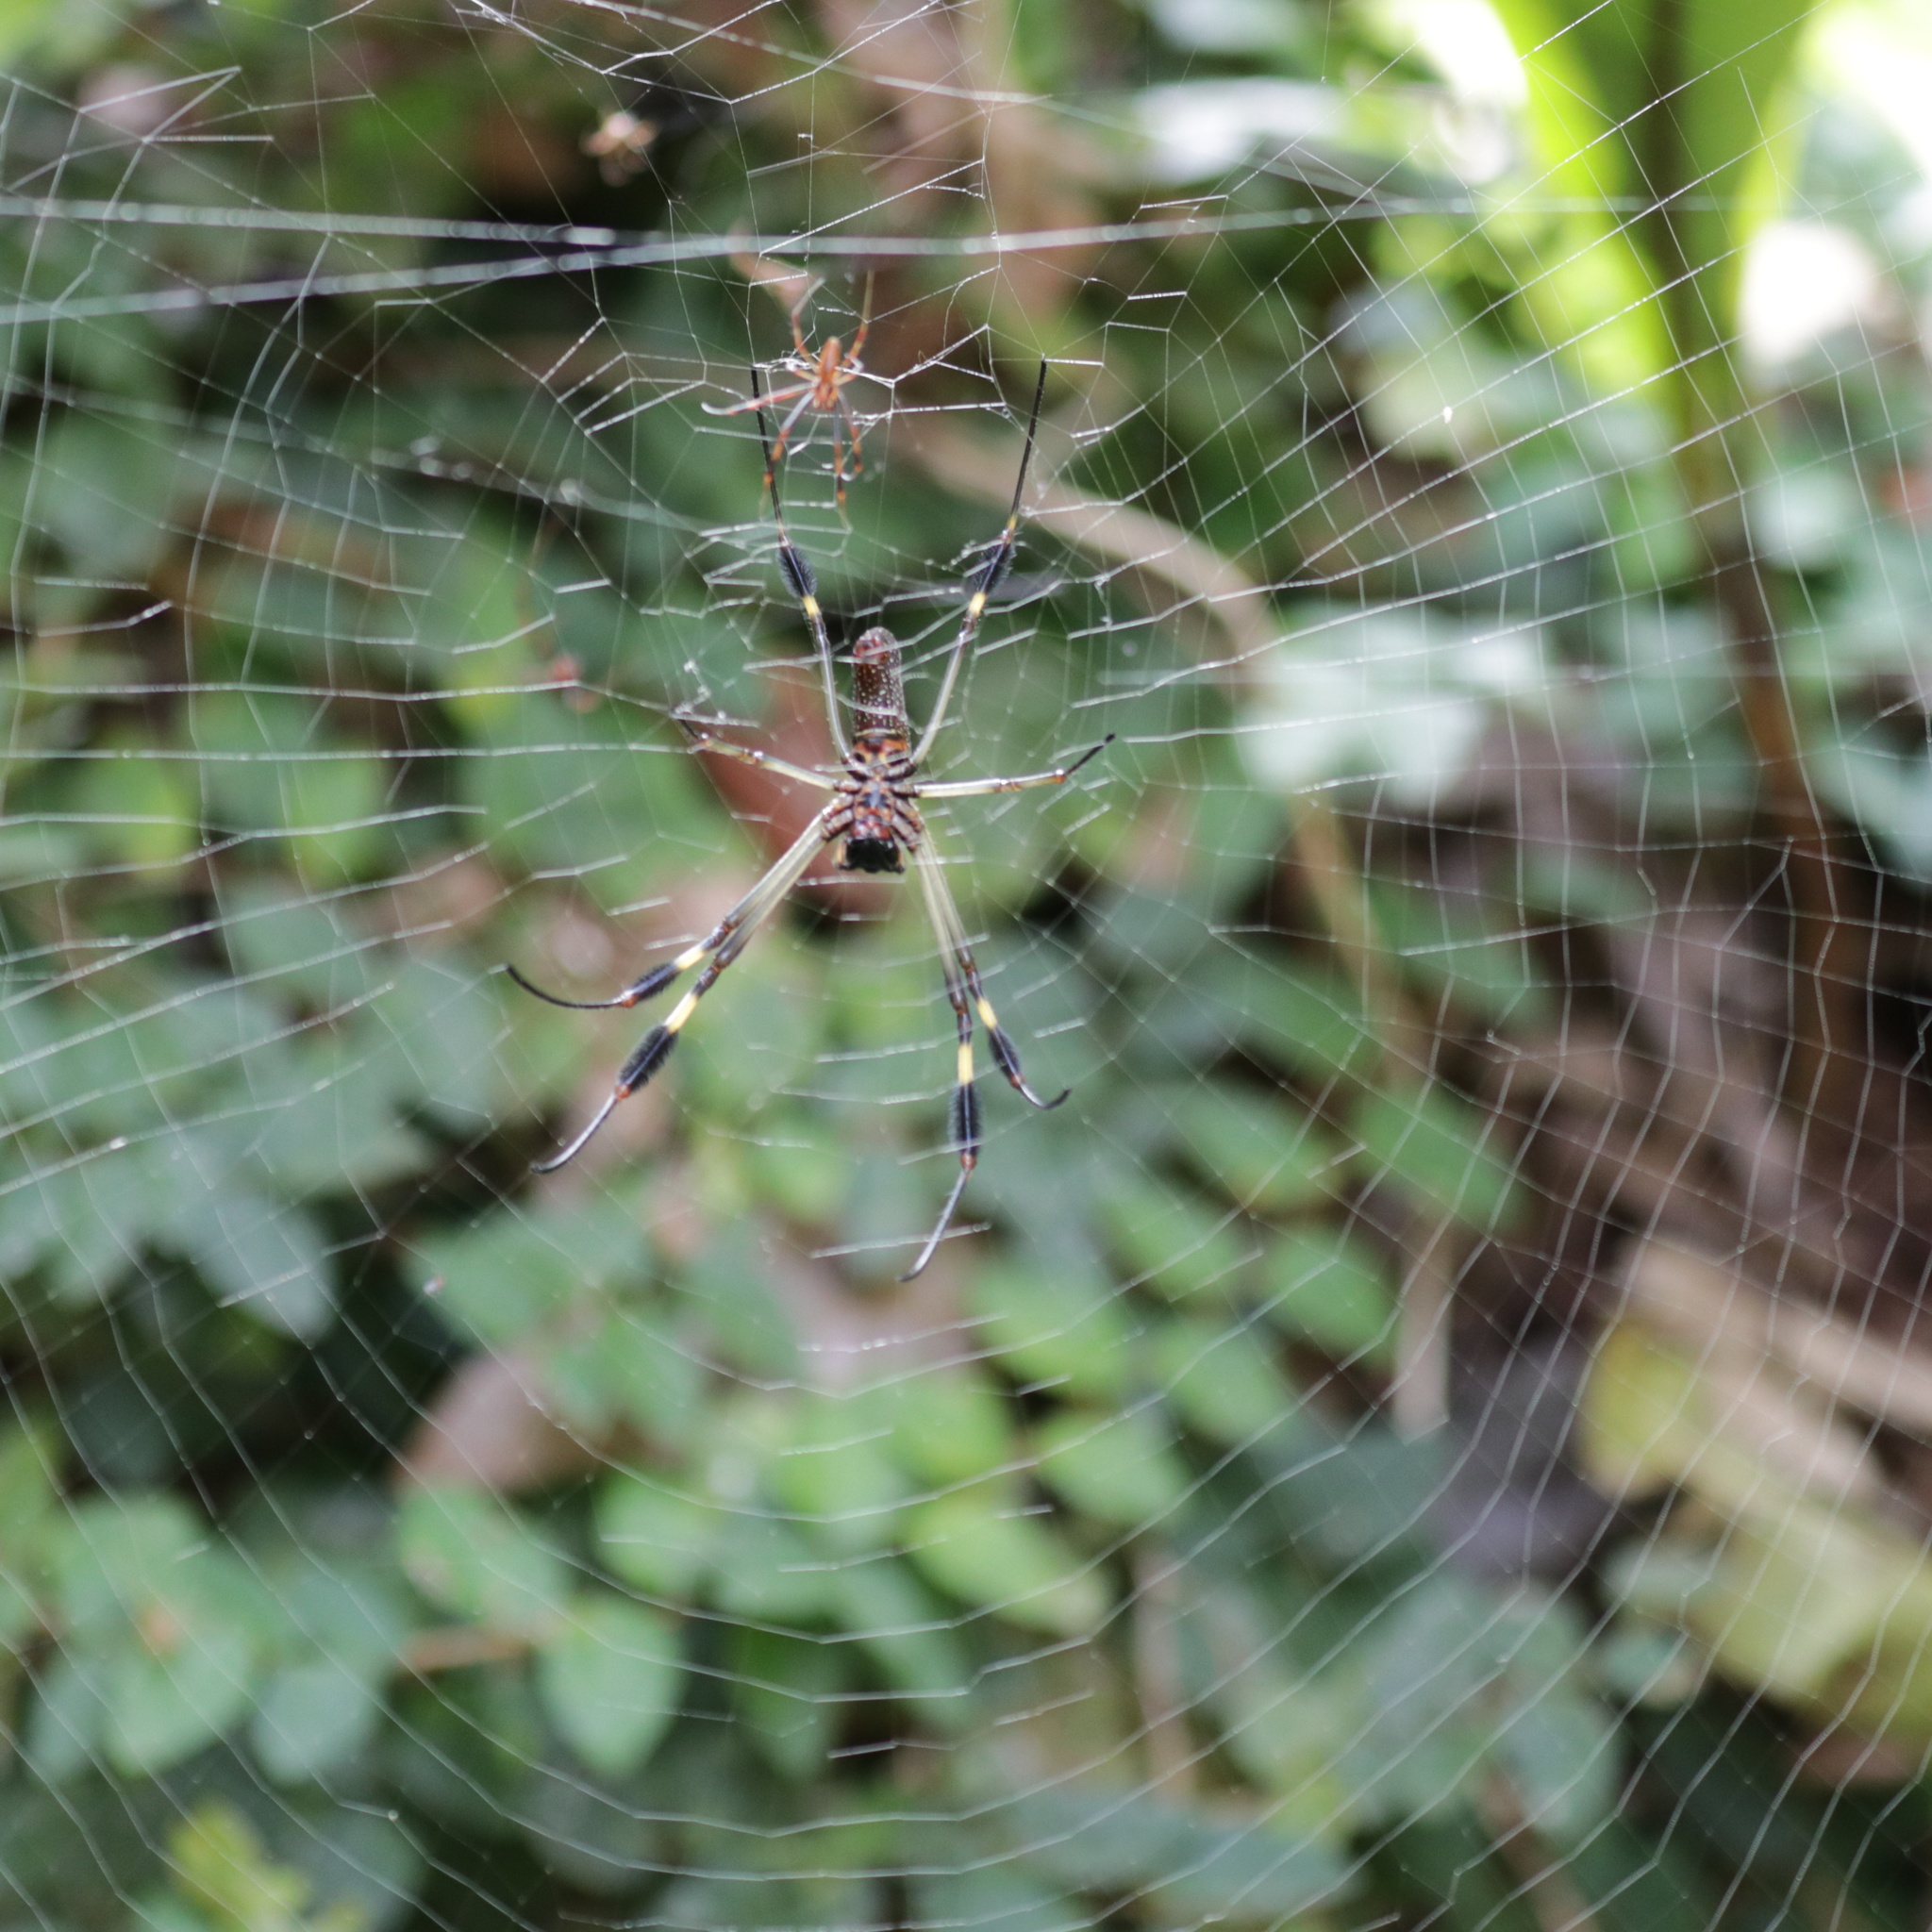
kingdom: Animalia
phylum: Arthropoda
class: Arachnida
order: Araneae
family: Araneidae
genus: Trichonephila
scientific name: Trichonephila clavipes
